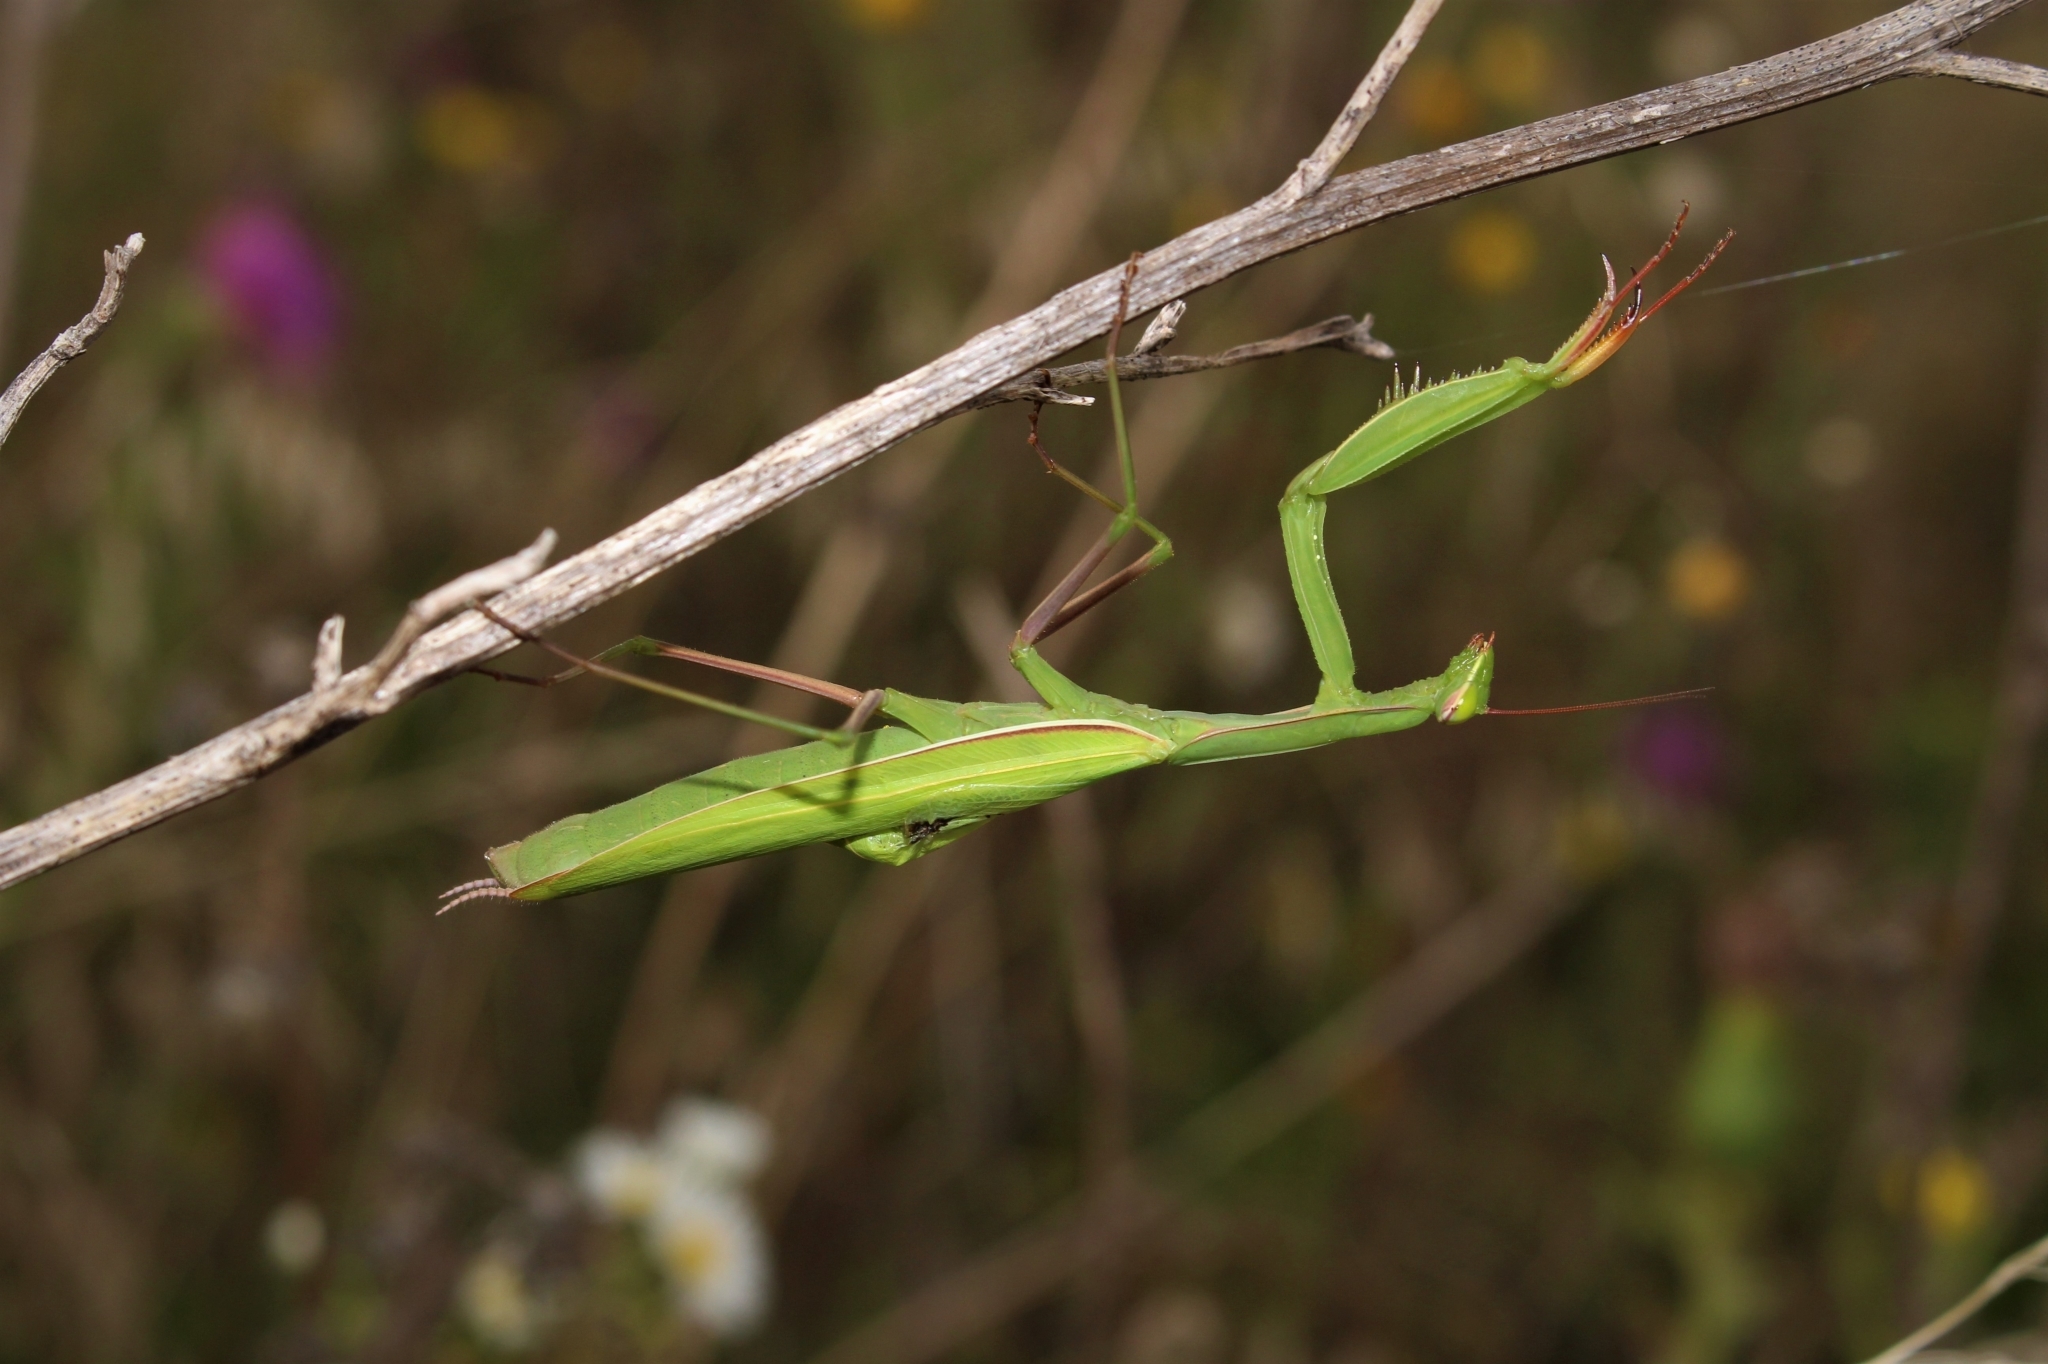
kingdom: Animalia
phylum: Arthropoda
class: Insecta
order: Mantodea
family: Mantidae
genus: Mantis
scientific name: Mantis religiosa
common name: Praying mantis
